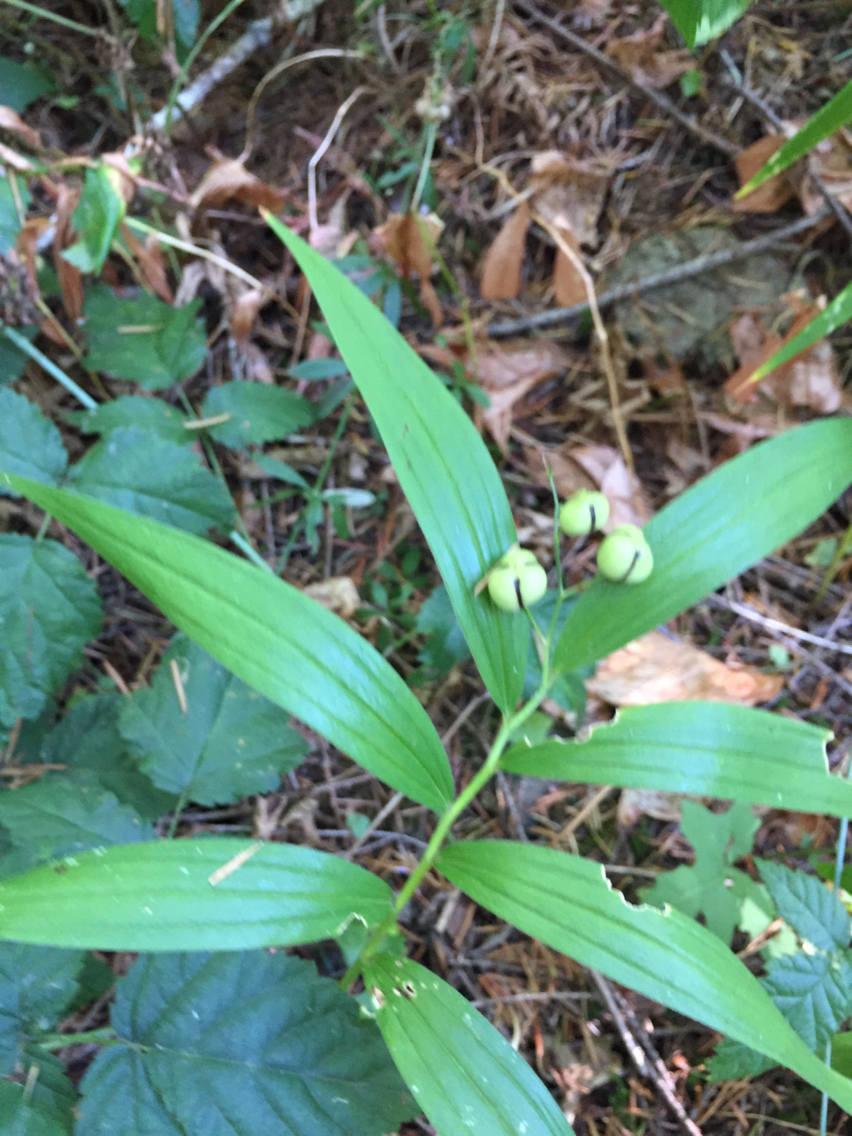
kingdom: Plantae
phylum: Tracheophyta
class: Liliopsida
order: Asparagales
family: Asparagaceae
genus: Maianthemum
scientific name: Maianthemum stellatum
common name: Little false solomon's seal
